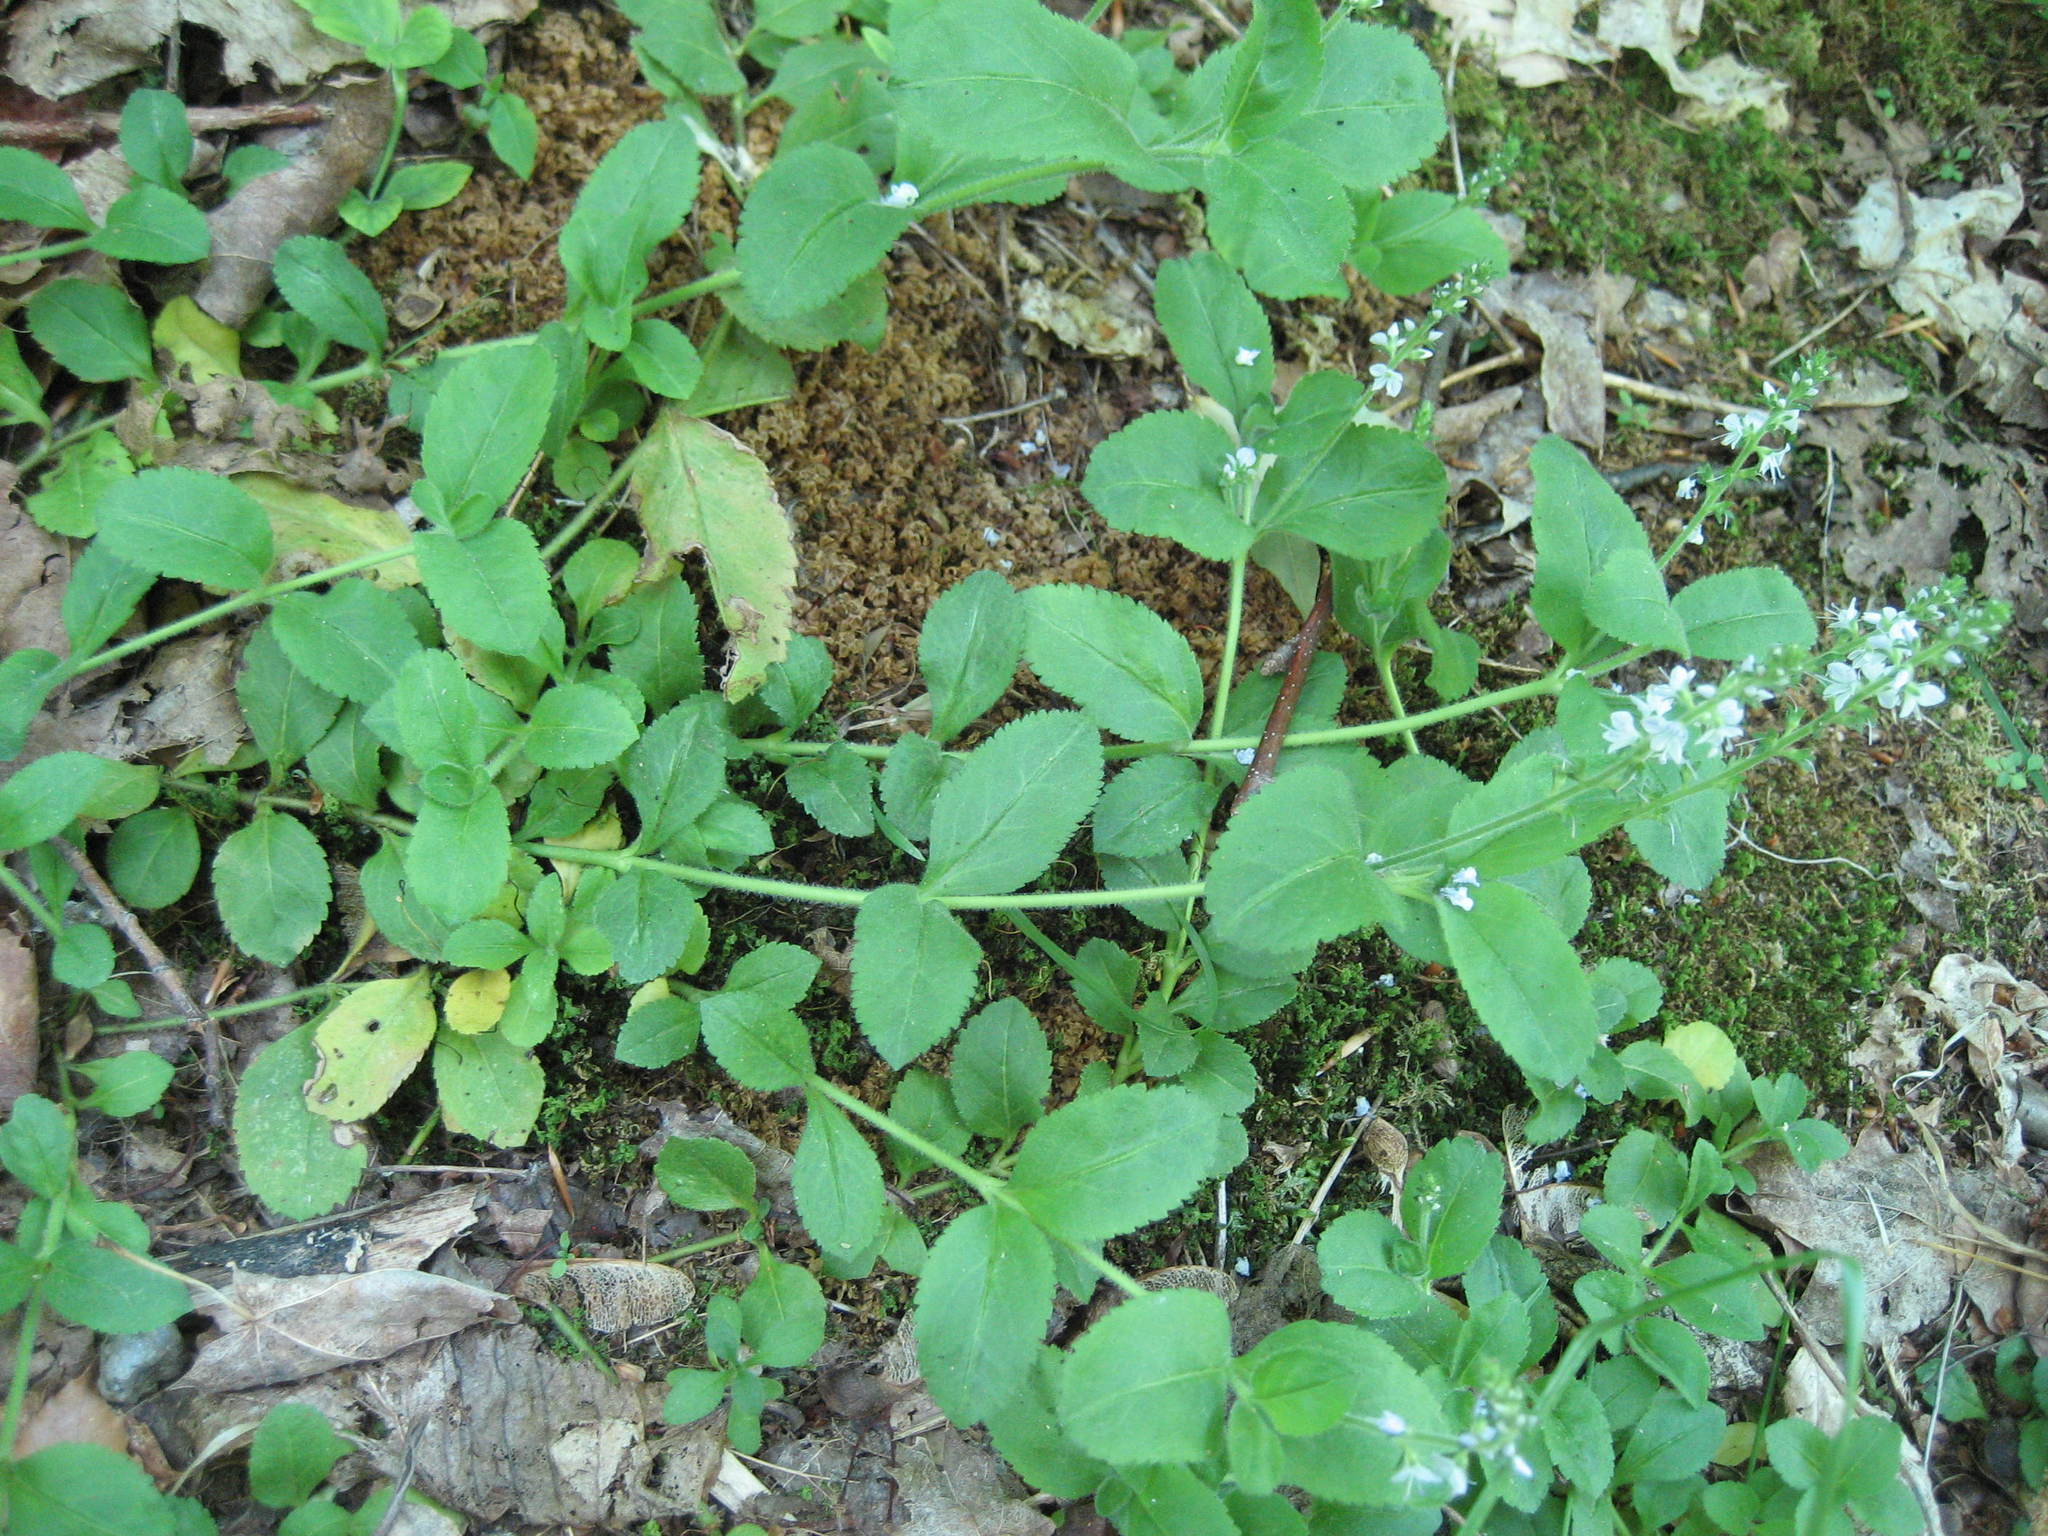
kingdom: Plantae
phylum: Tracheophyta
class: Magnoliopsida
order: Lamiales
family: Plantaginaceae
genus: Veronica
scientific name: Veronica officinalis
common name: Common speedwell
